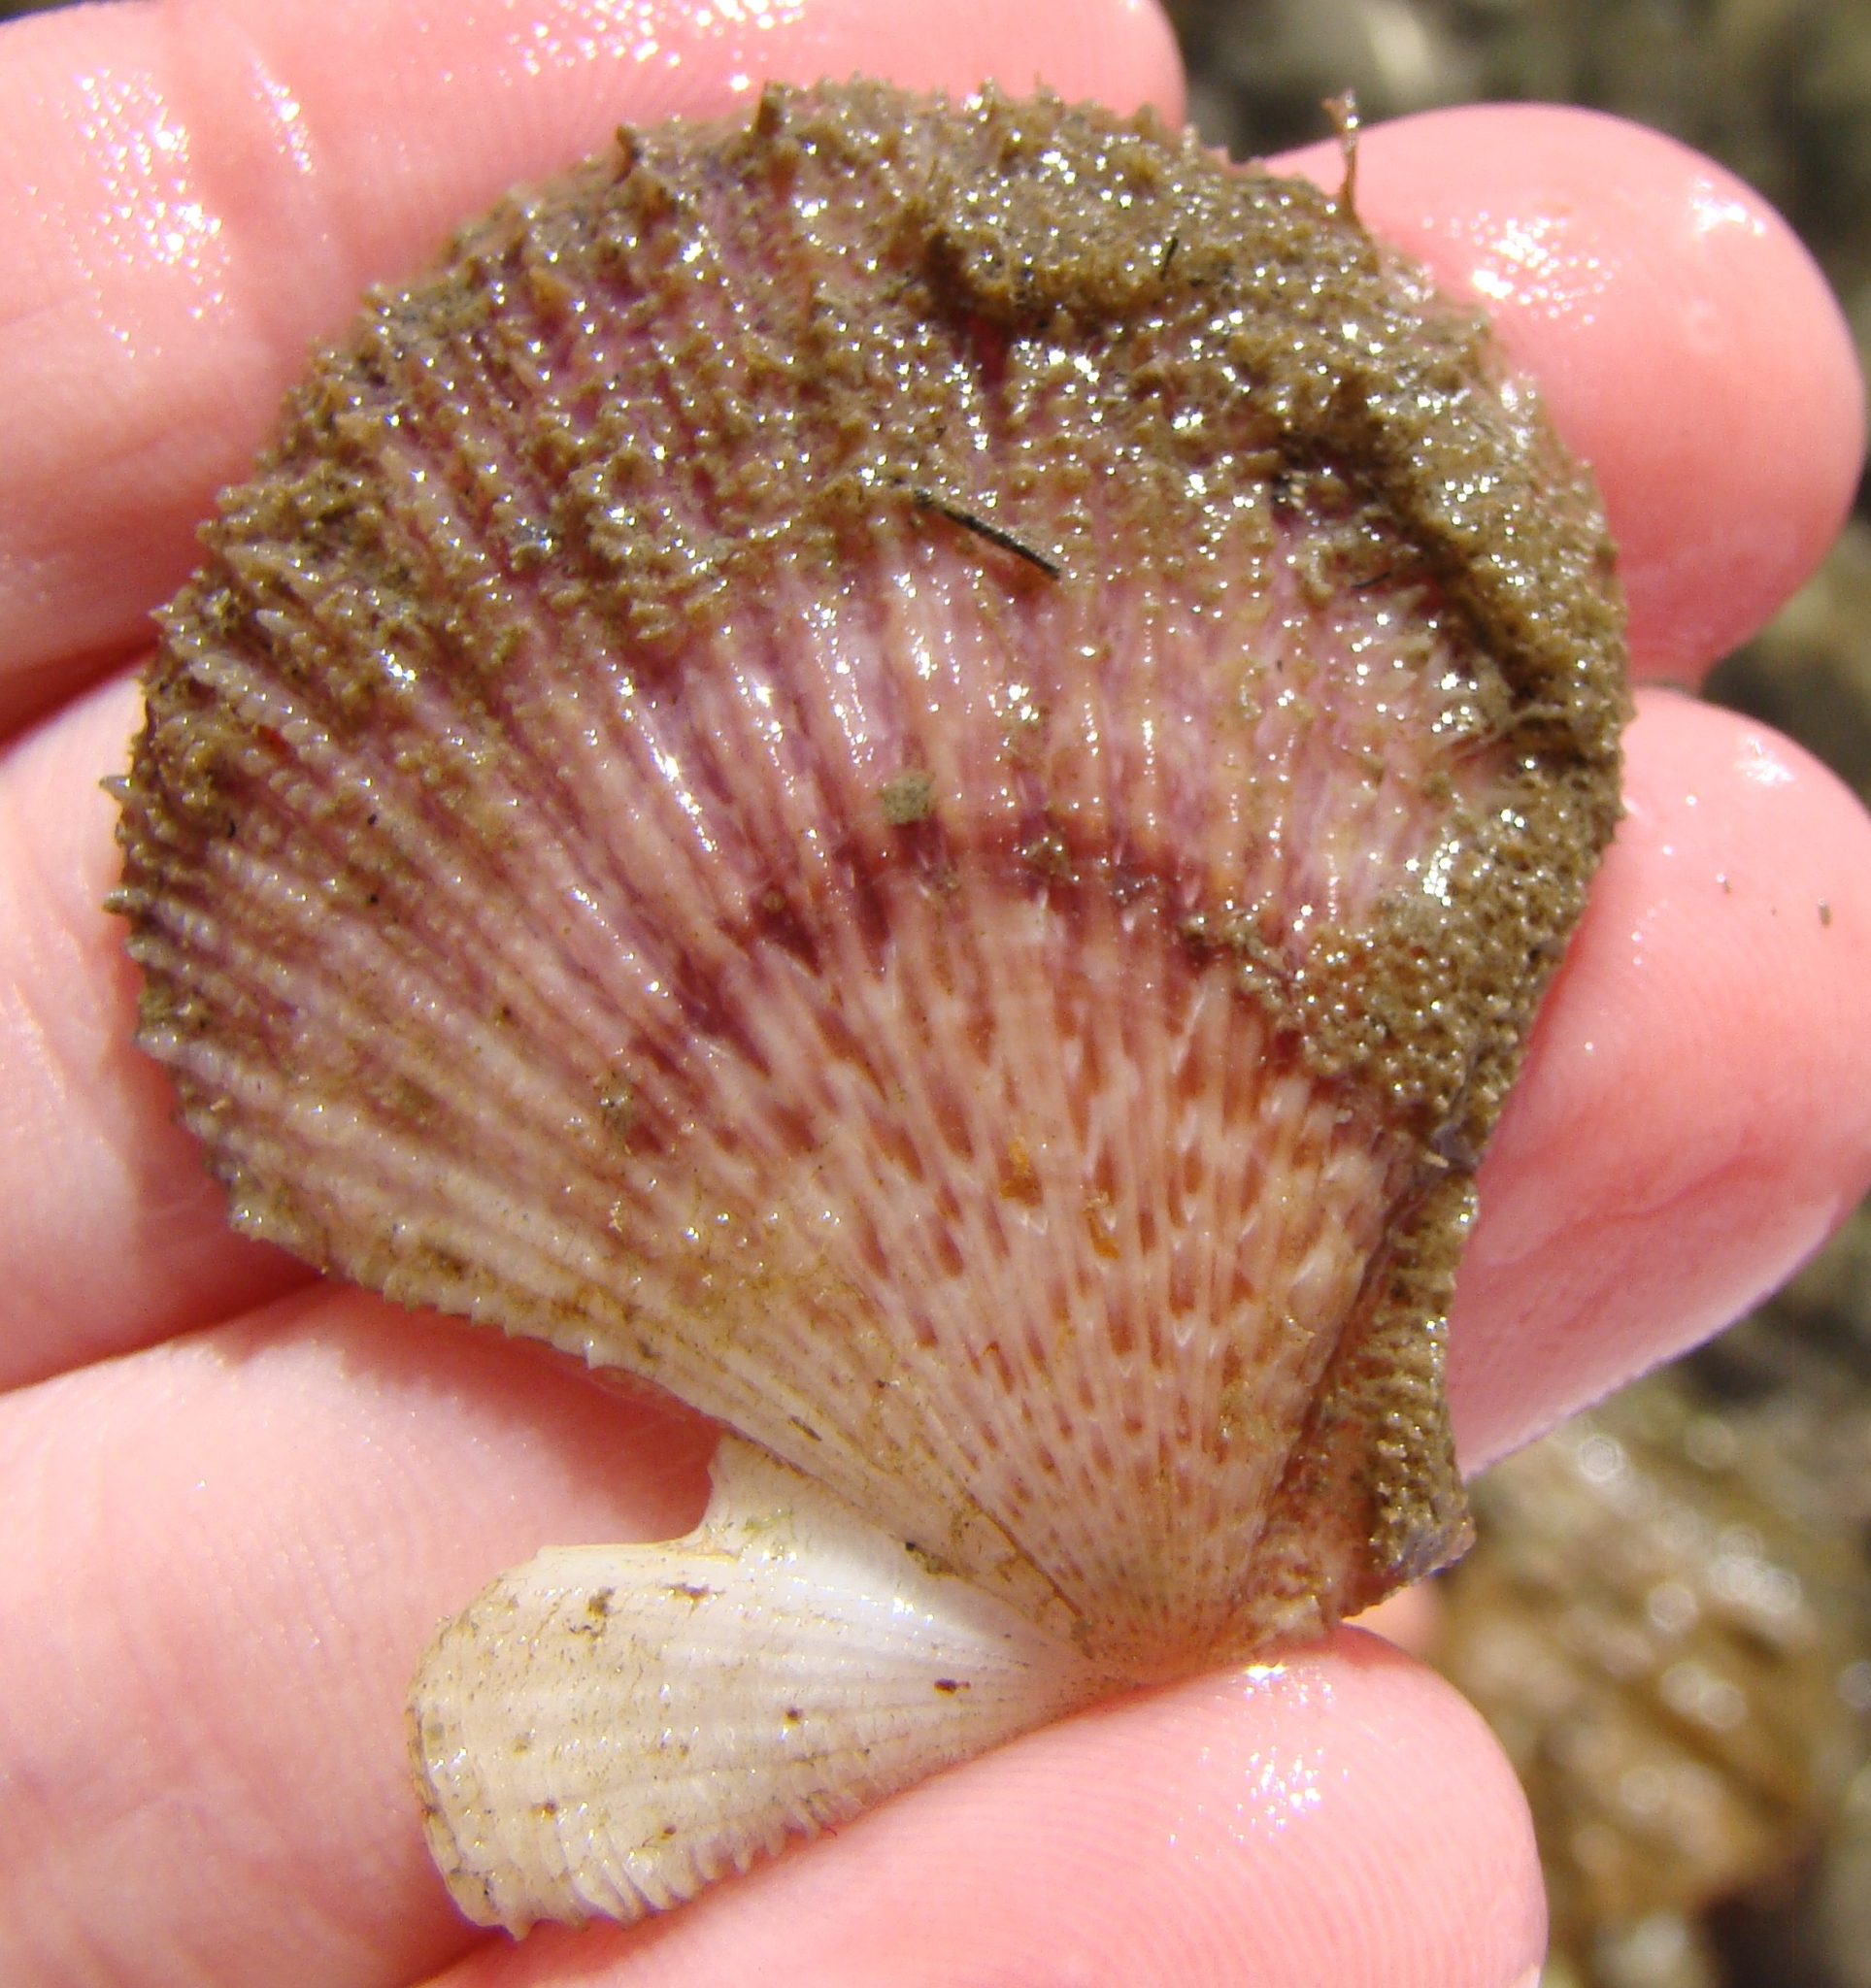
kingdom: Animalia
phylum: Mollusca
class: Bivalvia
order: Pectinida
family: Pectinidae
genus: Talochlamys
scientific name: Talochlamys zelandiae
